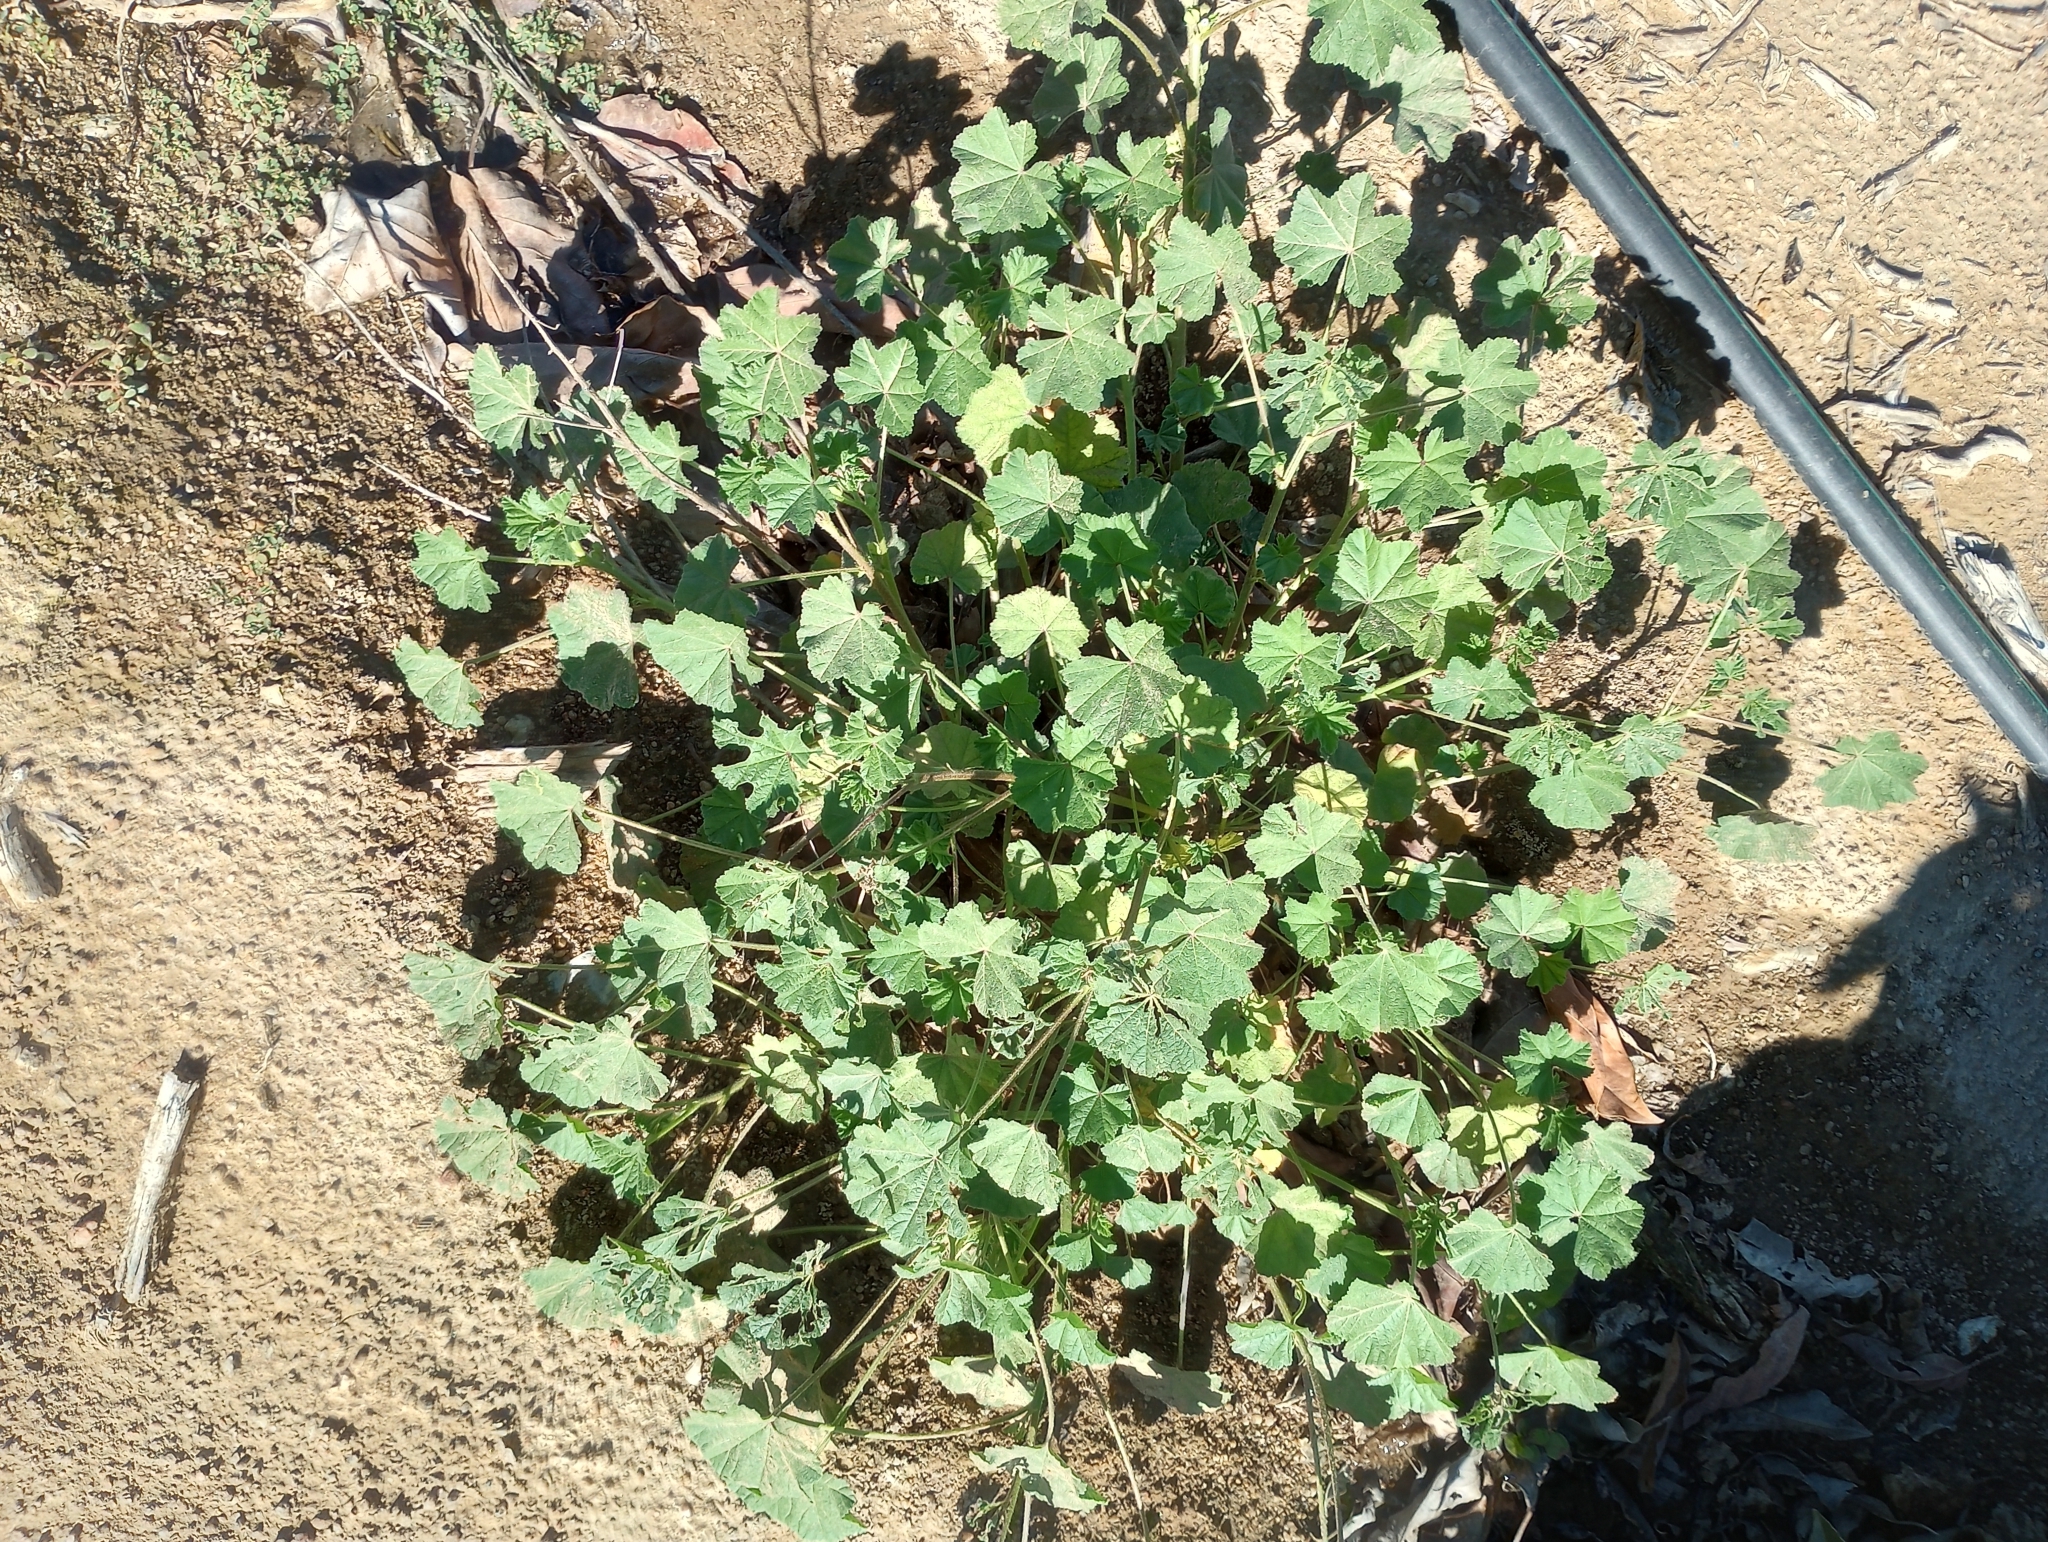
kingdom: Plantae
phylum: Tracheophyta
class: Magnoliopsida
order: Malvales
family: Malvaceae
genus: Malva
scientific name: Malva parviflora
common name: Least mallow
